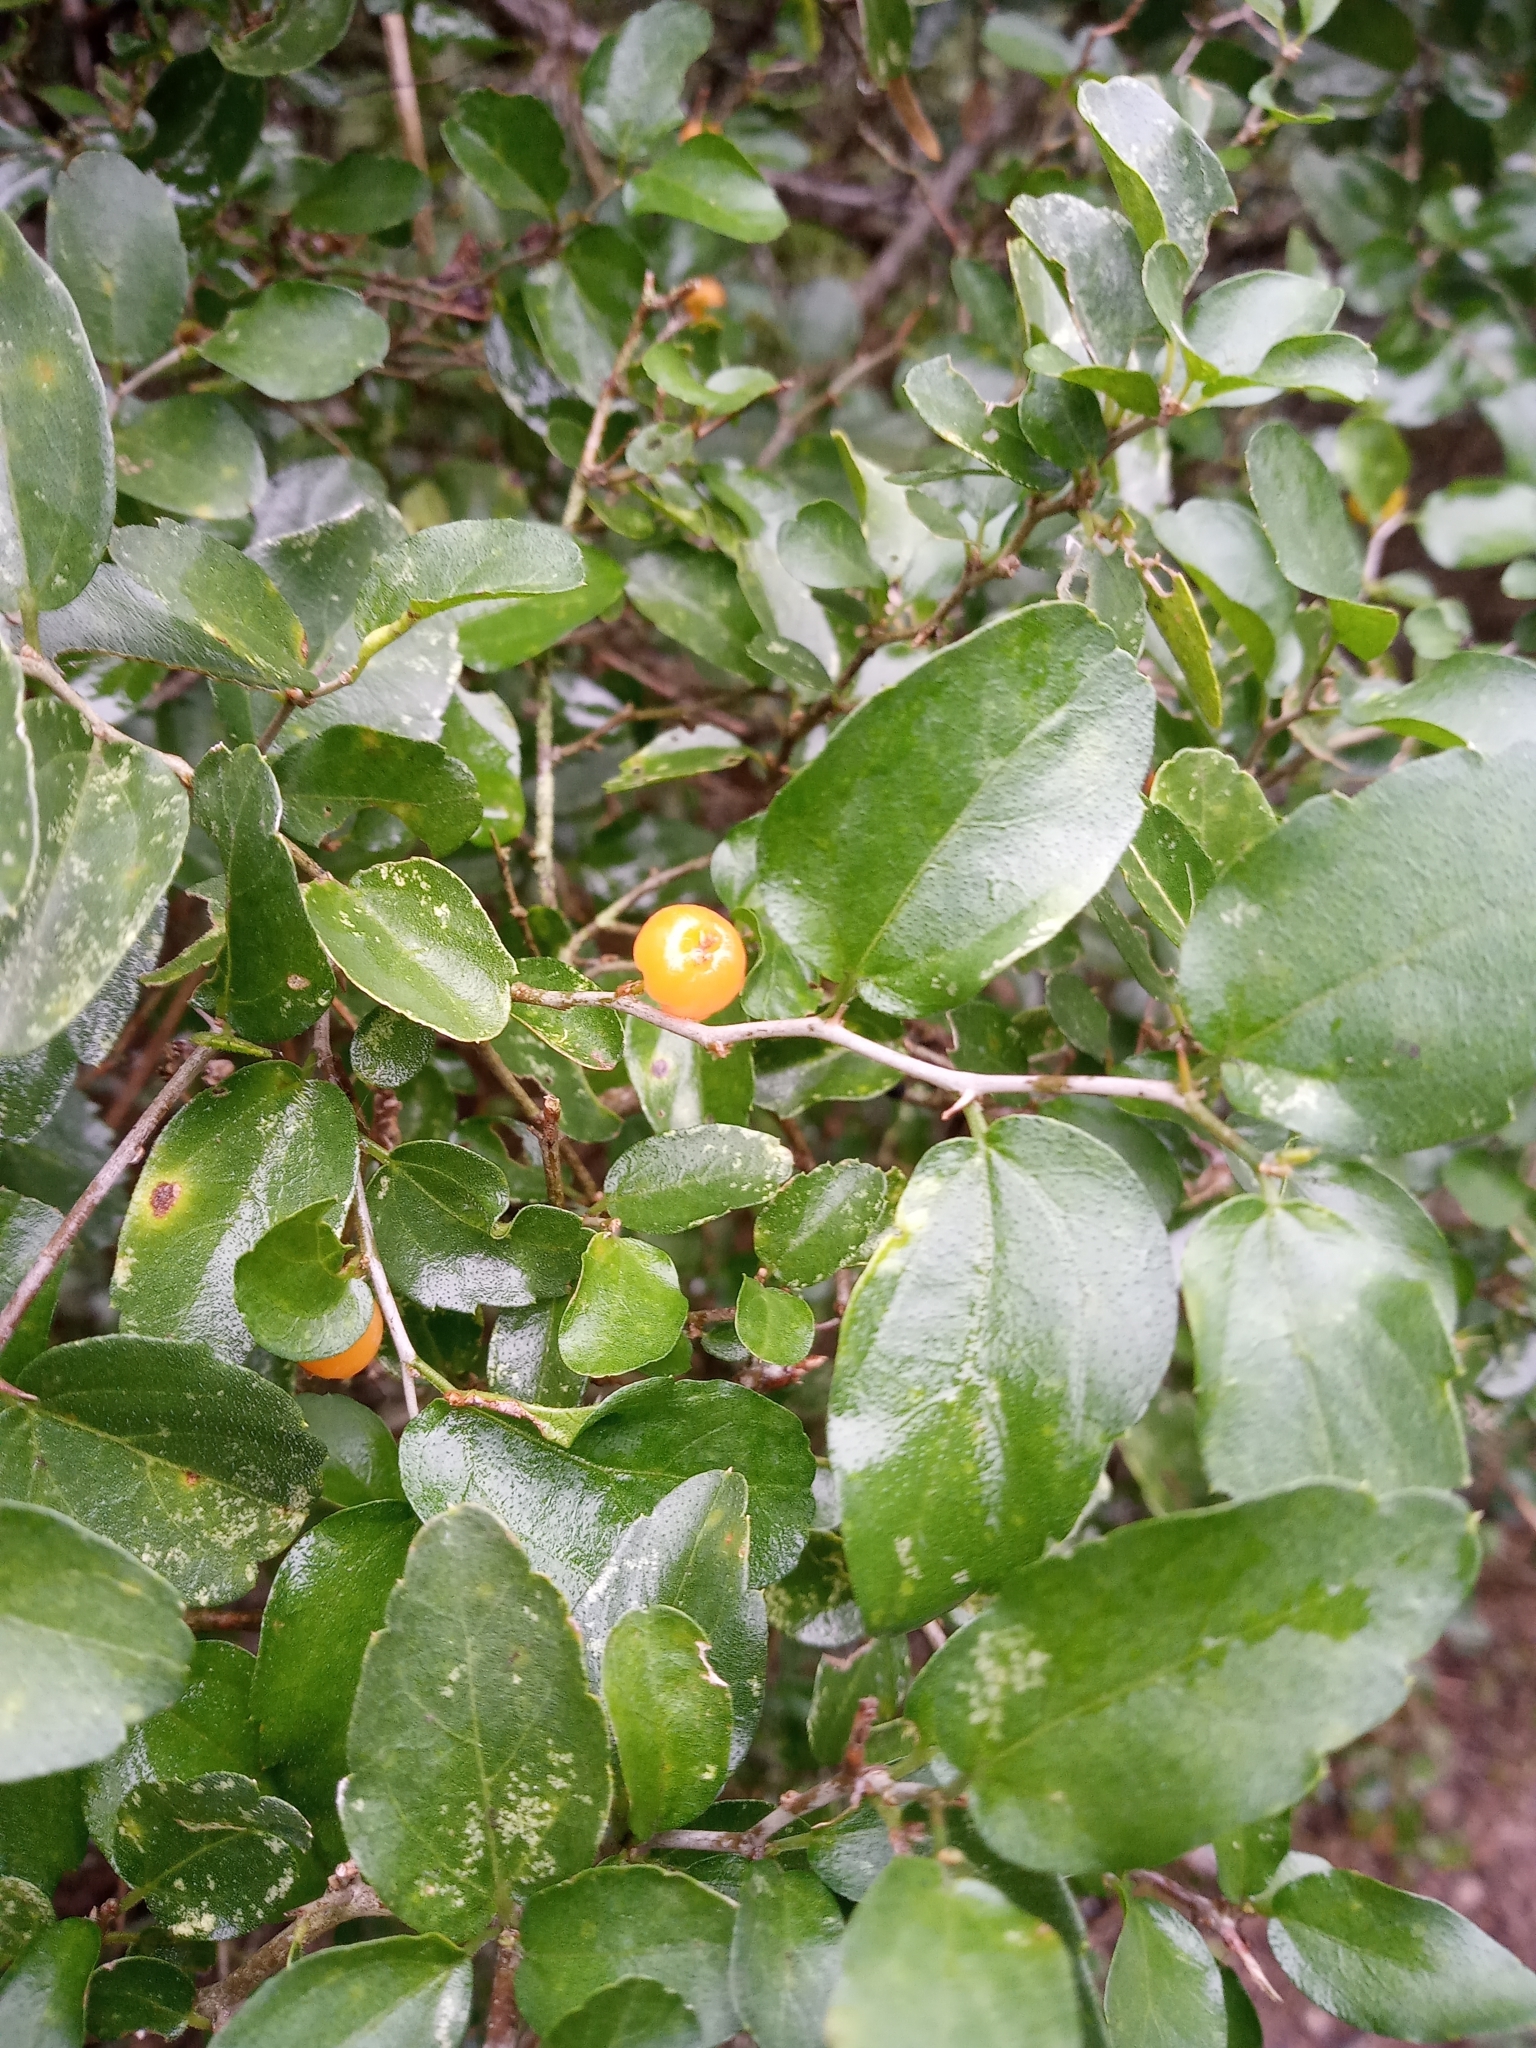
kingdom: Plantae
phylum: Tracheophyta
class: Magnoliopsida
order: Rosales
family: Cannabaceae
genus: Celtis
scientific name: Celtis pallida
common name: Desert hackberry
